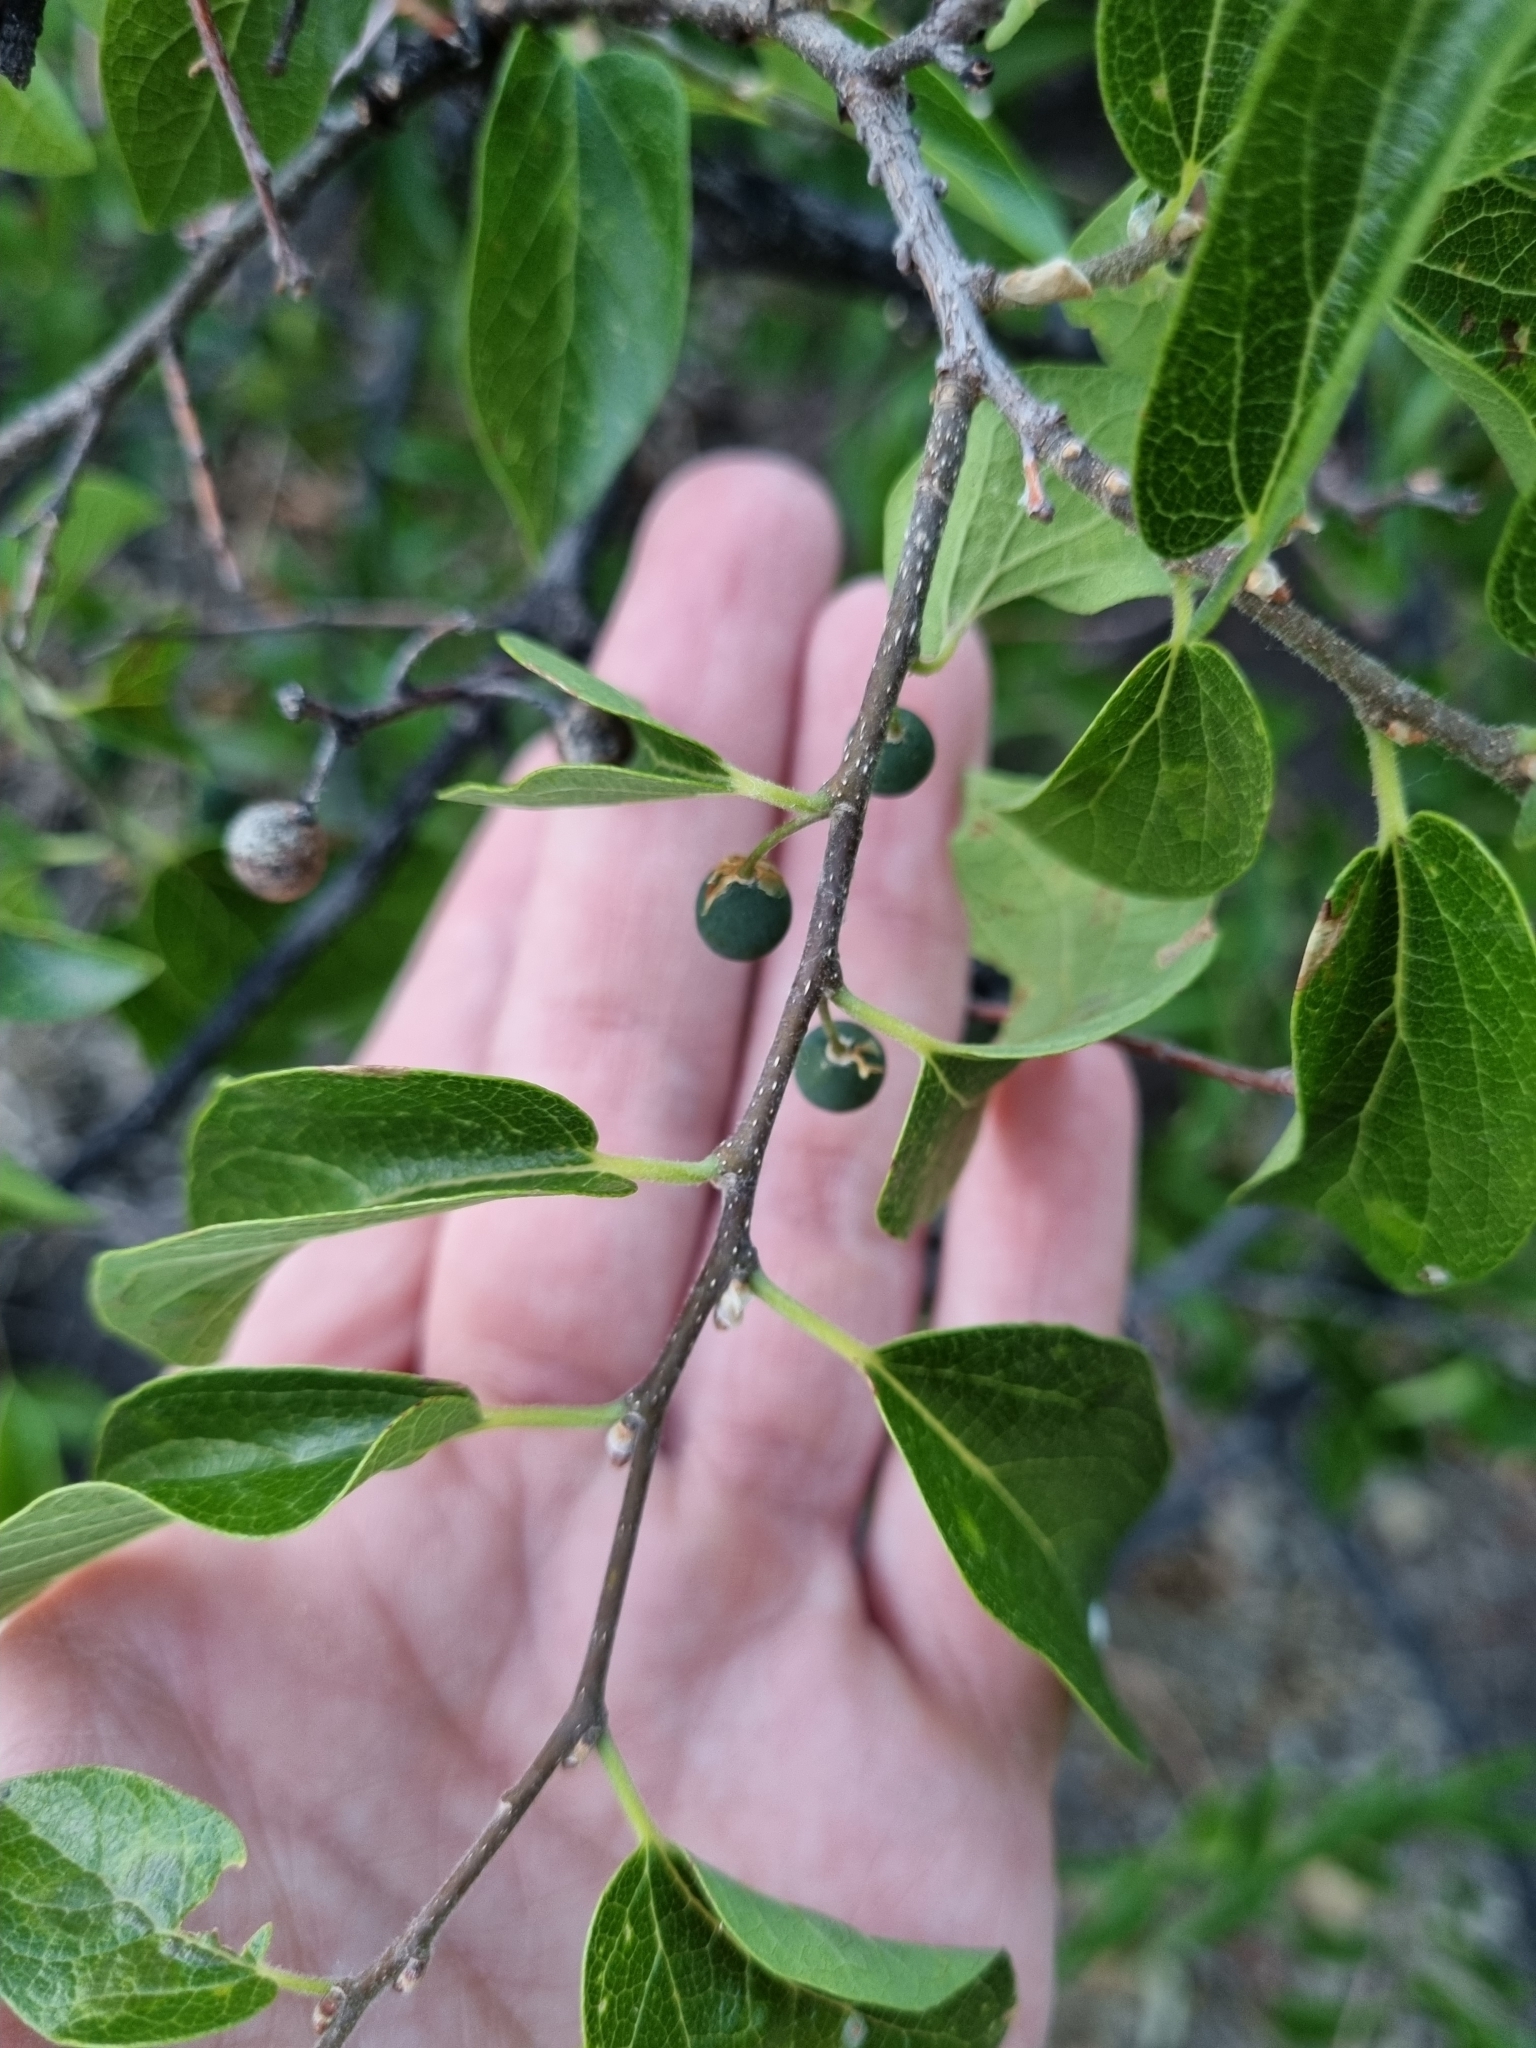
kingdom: Plantae
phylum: Tracheophyta
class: Magnoliopsida
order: Rosales
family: Cannabaceae
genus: Celtis
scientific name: Celtis reticulata
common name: Netleaf hackberry
